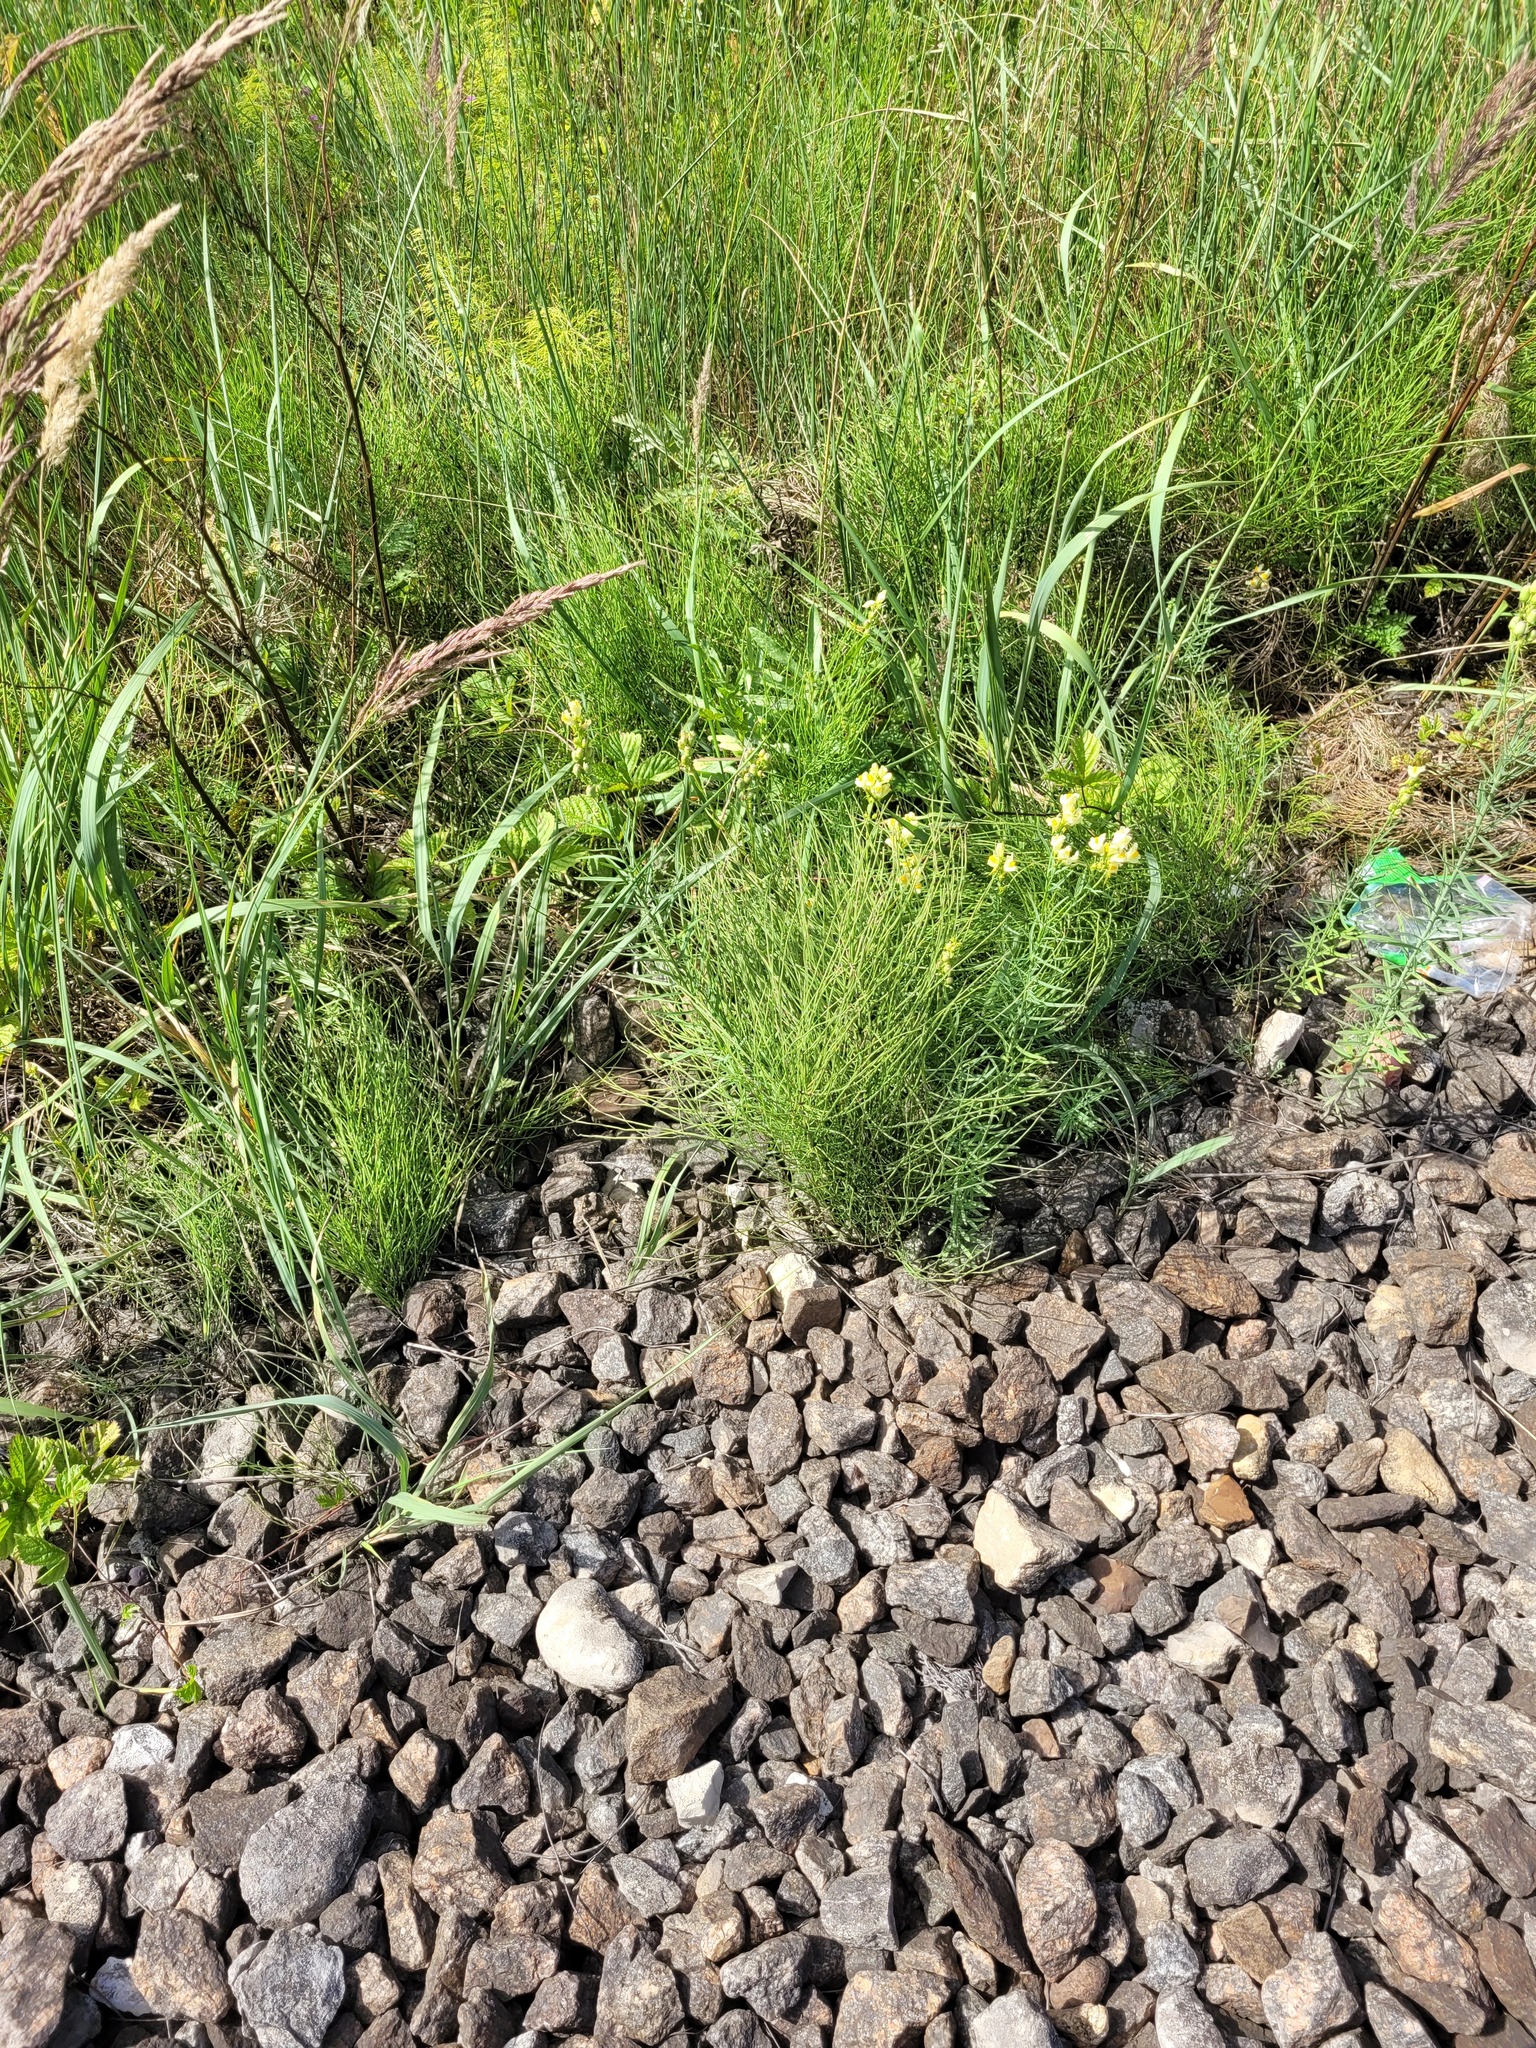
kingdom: Plantae
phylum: Tracheophyta
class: Polypodiopsida
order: Equisetales
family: Equisetaceae
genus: Equisetum
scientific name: Equisetum arvense
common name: Field horsetail
